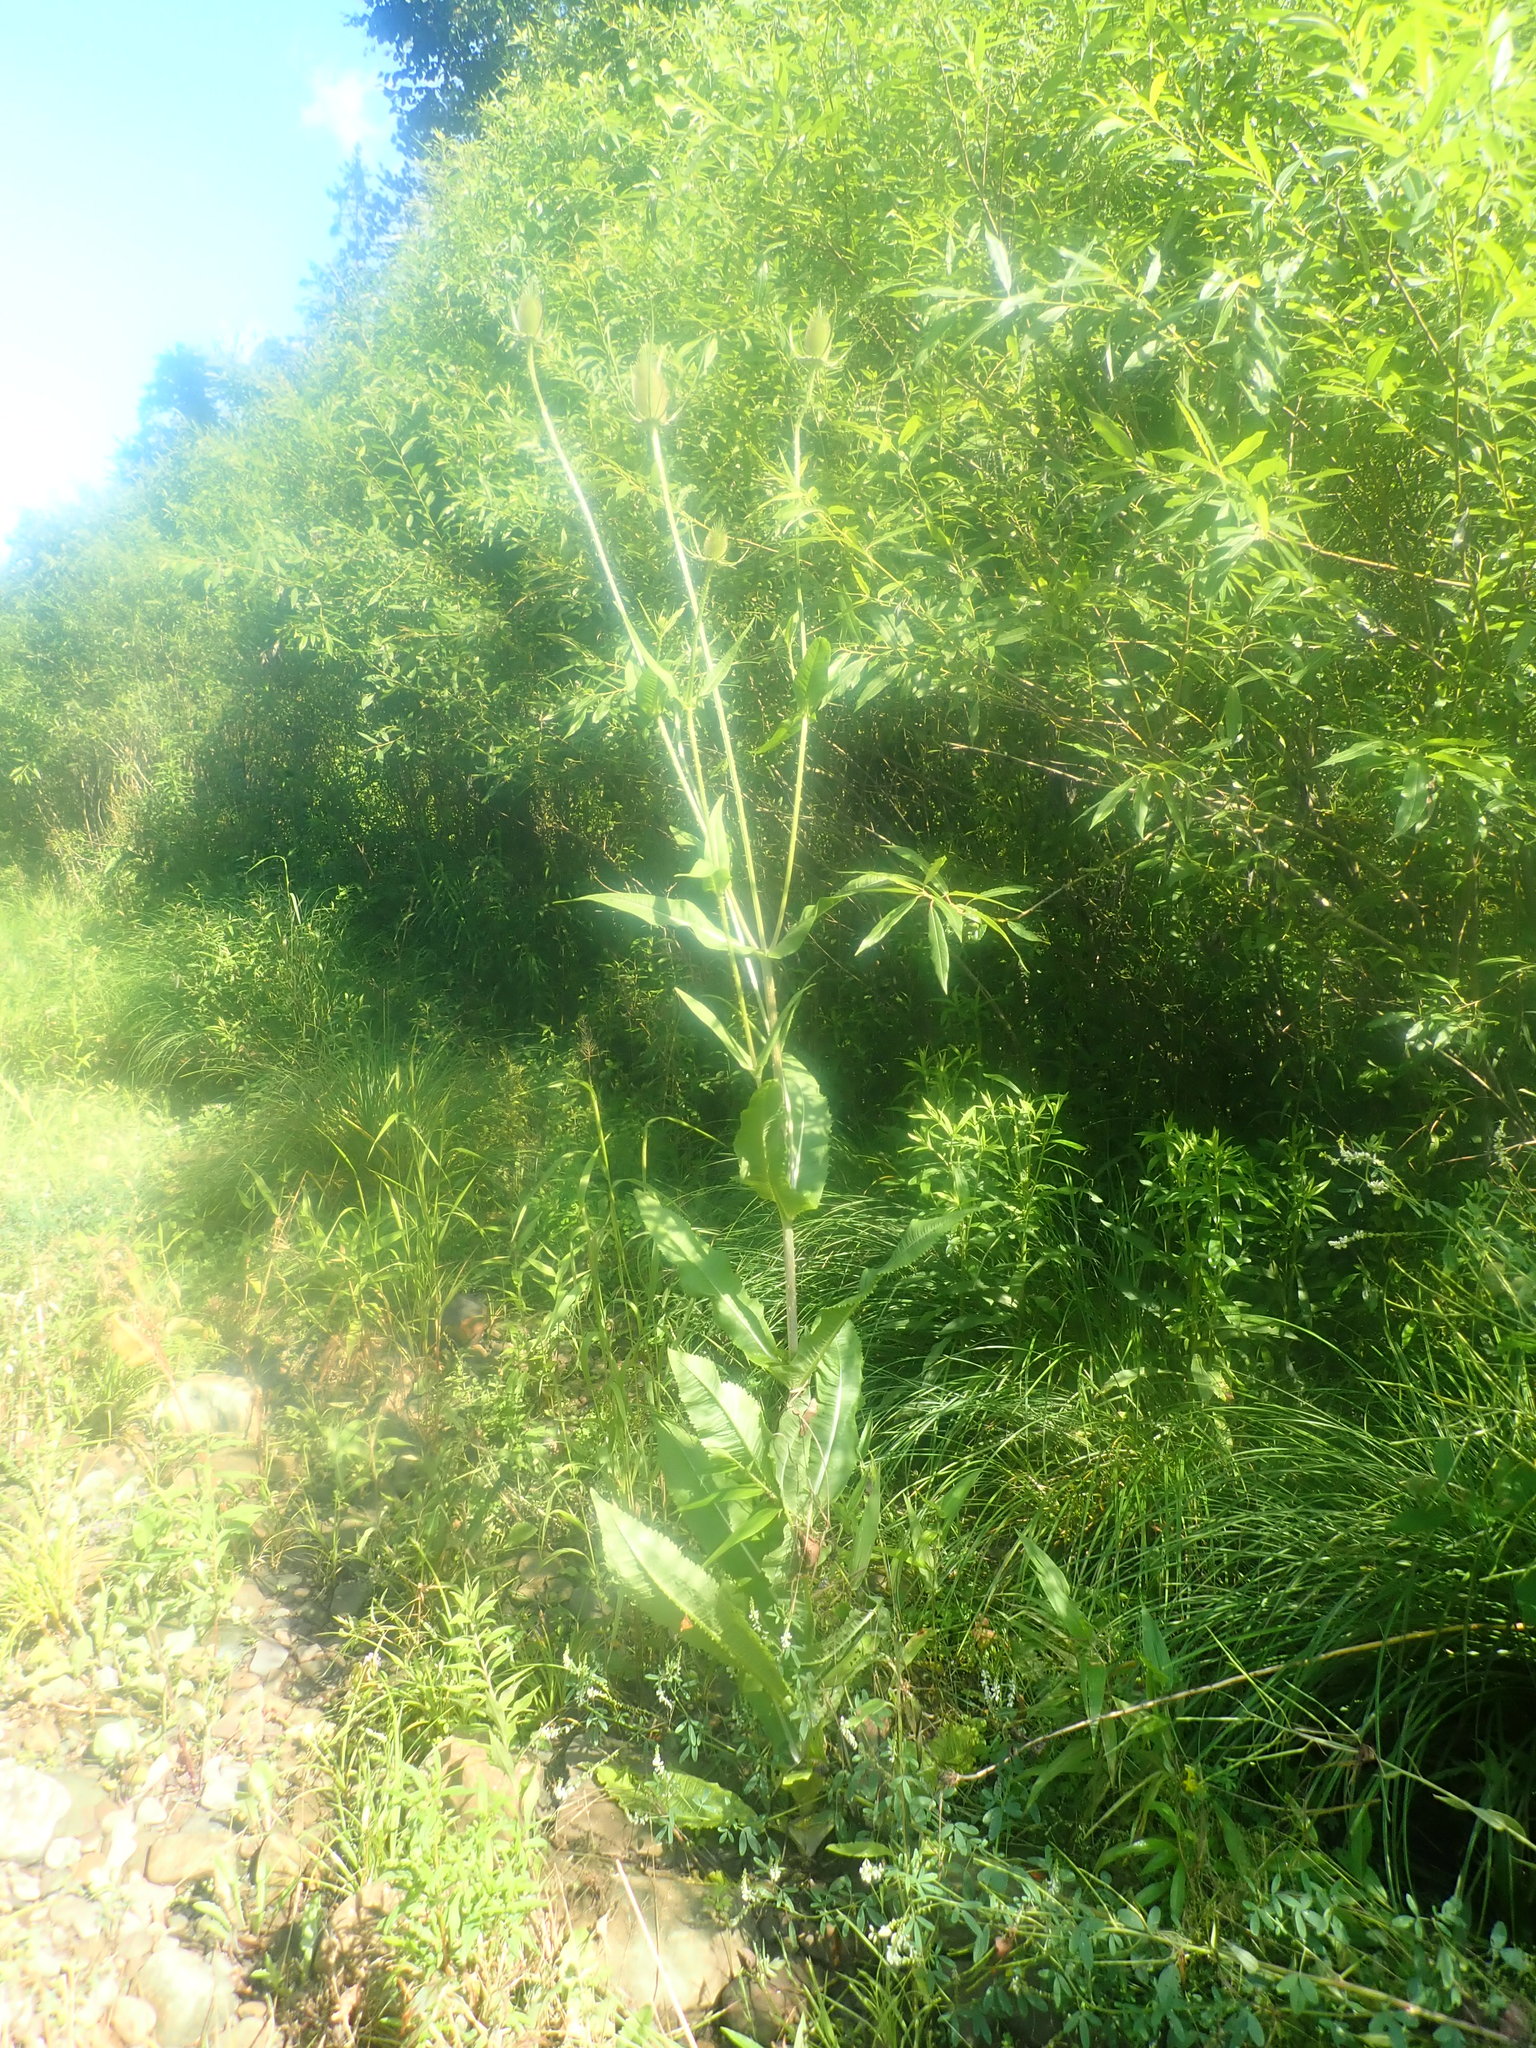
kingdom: Plantae
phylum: Tracheophyta
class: Magnoliopsida
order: Dipsacales
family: Caprifoliaceae
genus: Dipsacus
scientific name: Dipsacus fullonum
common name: Teasel
